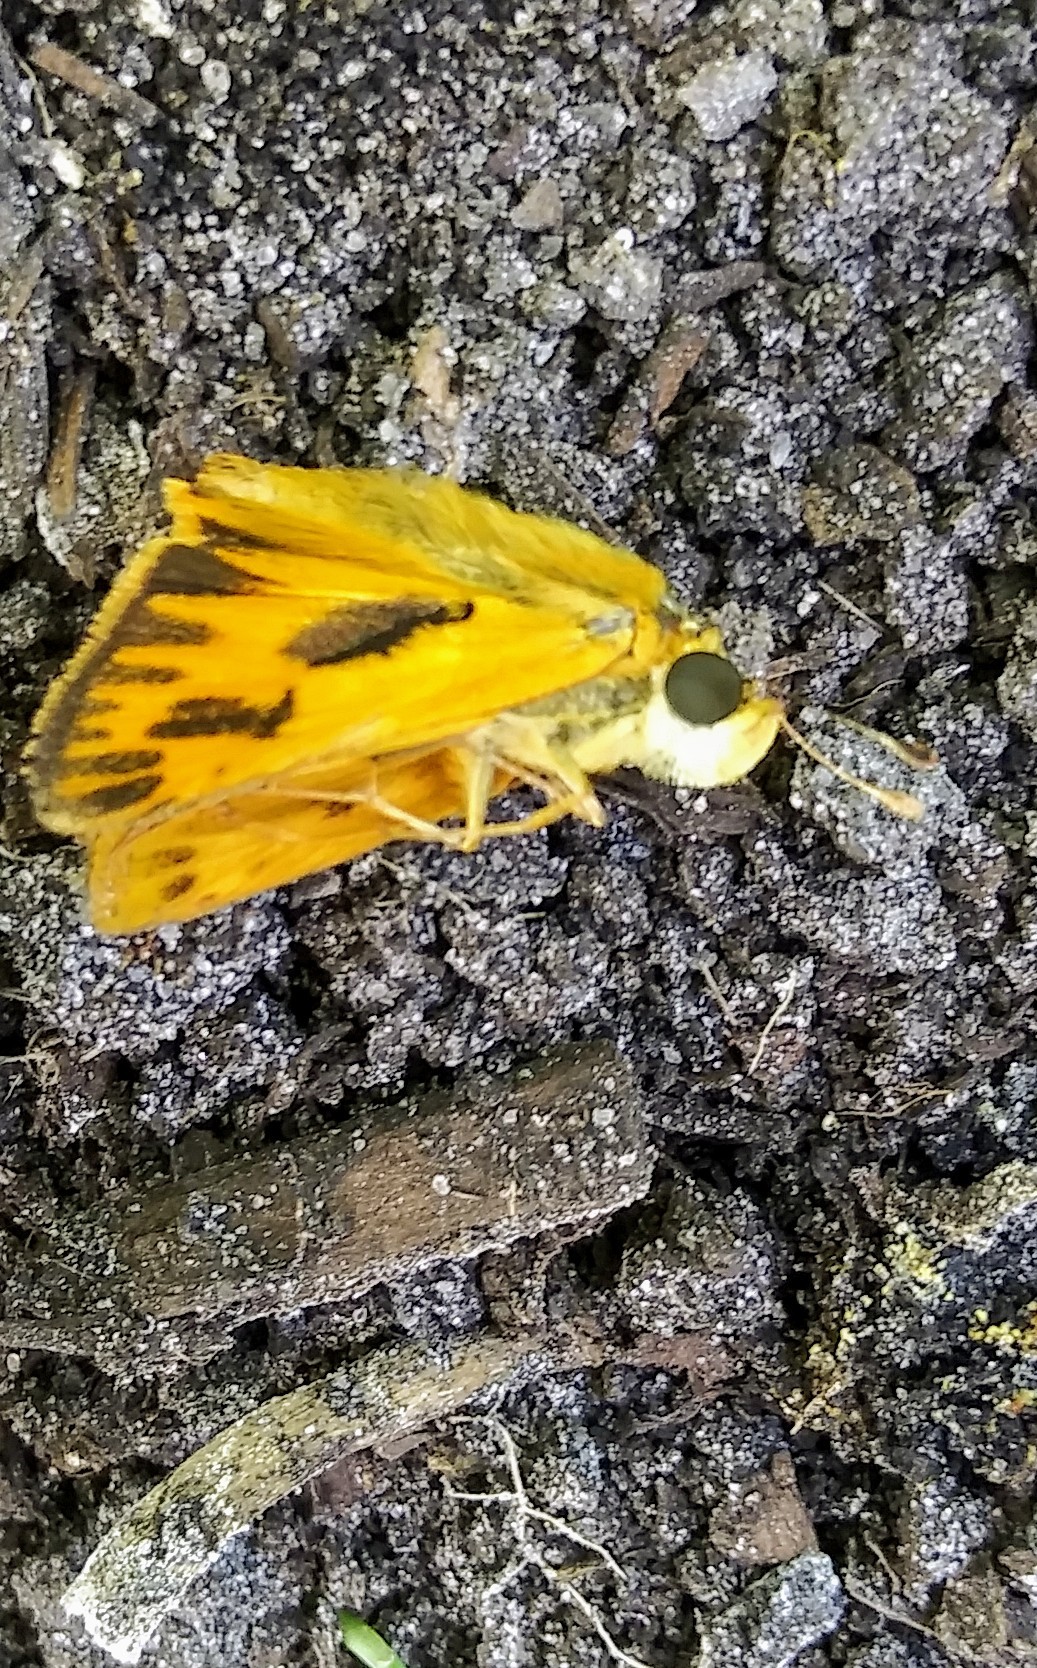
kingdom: Animalia
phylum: Arthropoda
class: Insecta
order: Lepidoptera
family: Hesperiidae
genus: Hylephila
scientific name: Hylephila phyleus
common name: Fiery skipper
